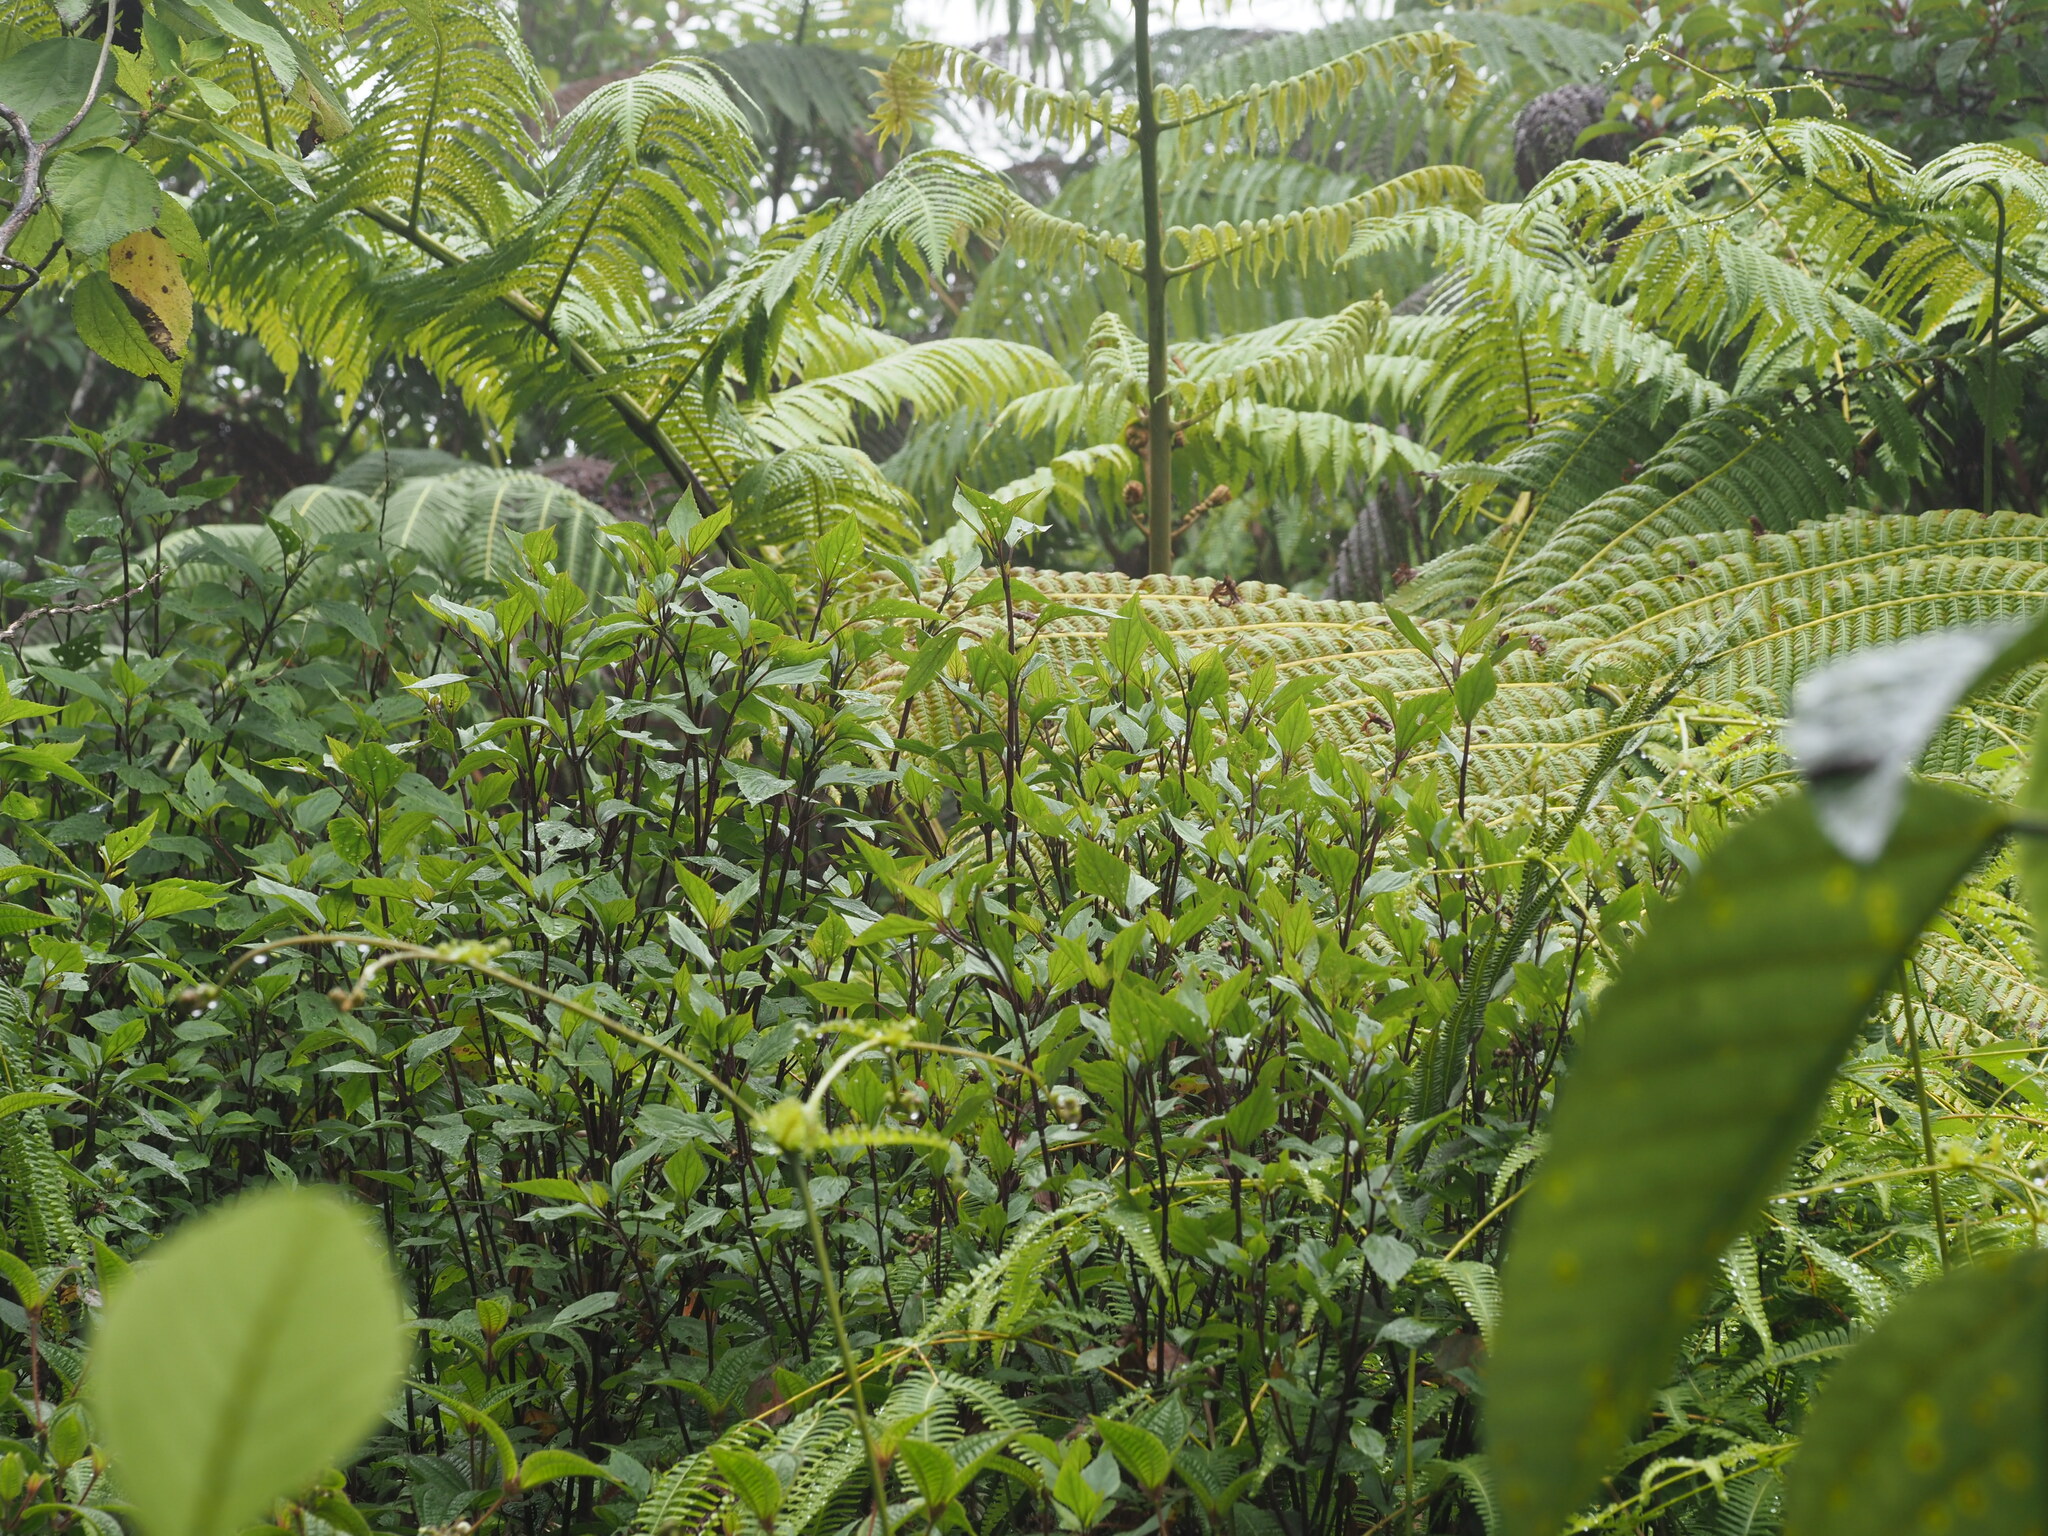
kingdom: Plantae
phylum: Tracheophyta
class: Magnoliopsida
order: Asterales
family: Asteraceae
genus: Ageratina
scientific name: Ageratina adenophora
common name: Sticky snakeroot
